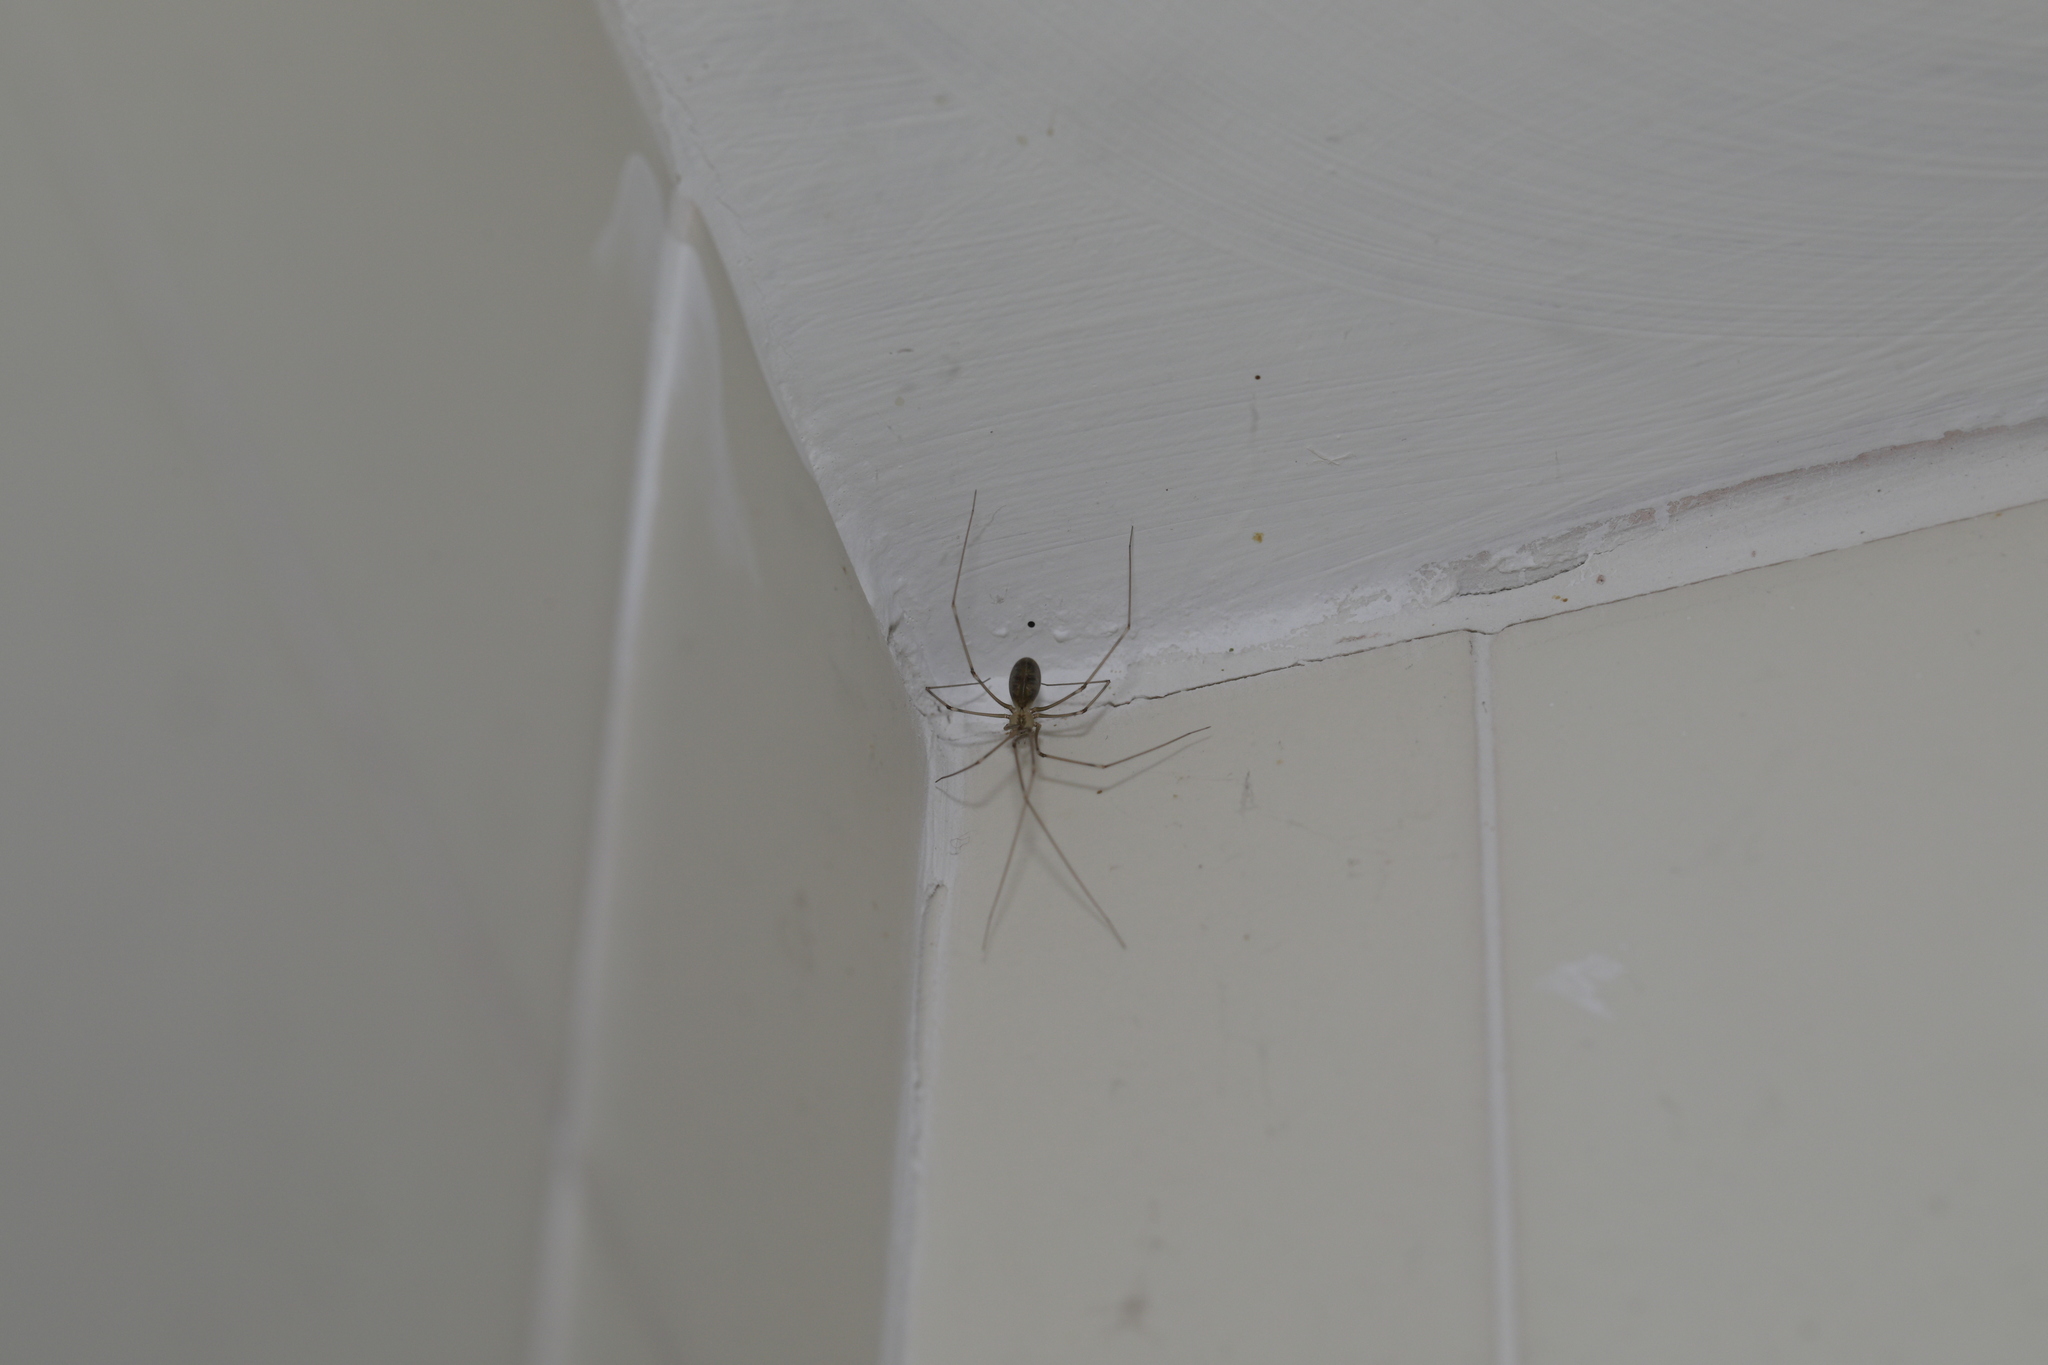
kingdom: Animalia
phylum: Arthropoda
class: Arachnida
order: Araneae
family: Pholcidae
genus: Pholcus
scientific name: Pholcus phalangioides
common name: Longbodied cellar spider
